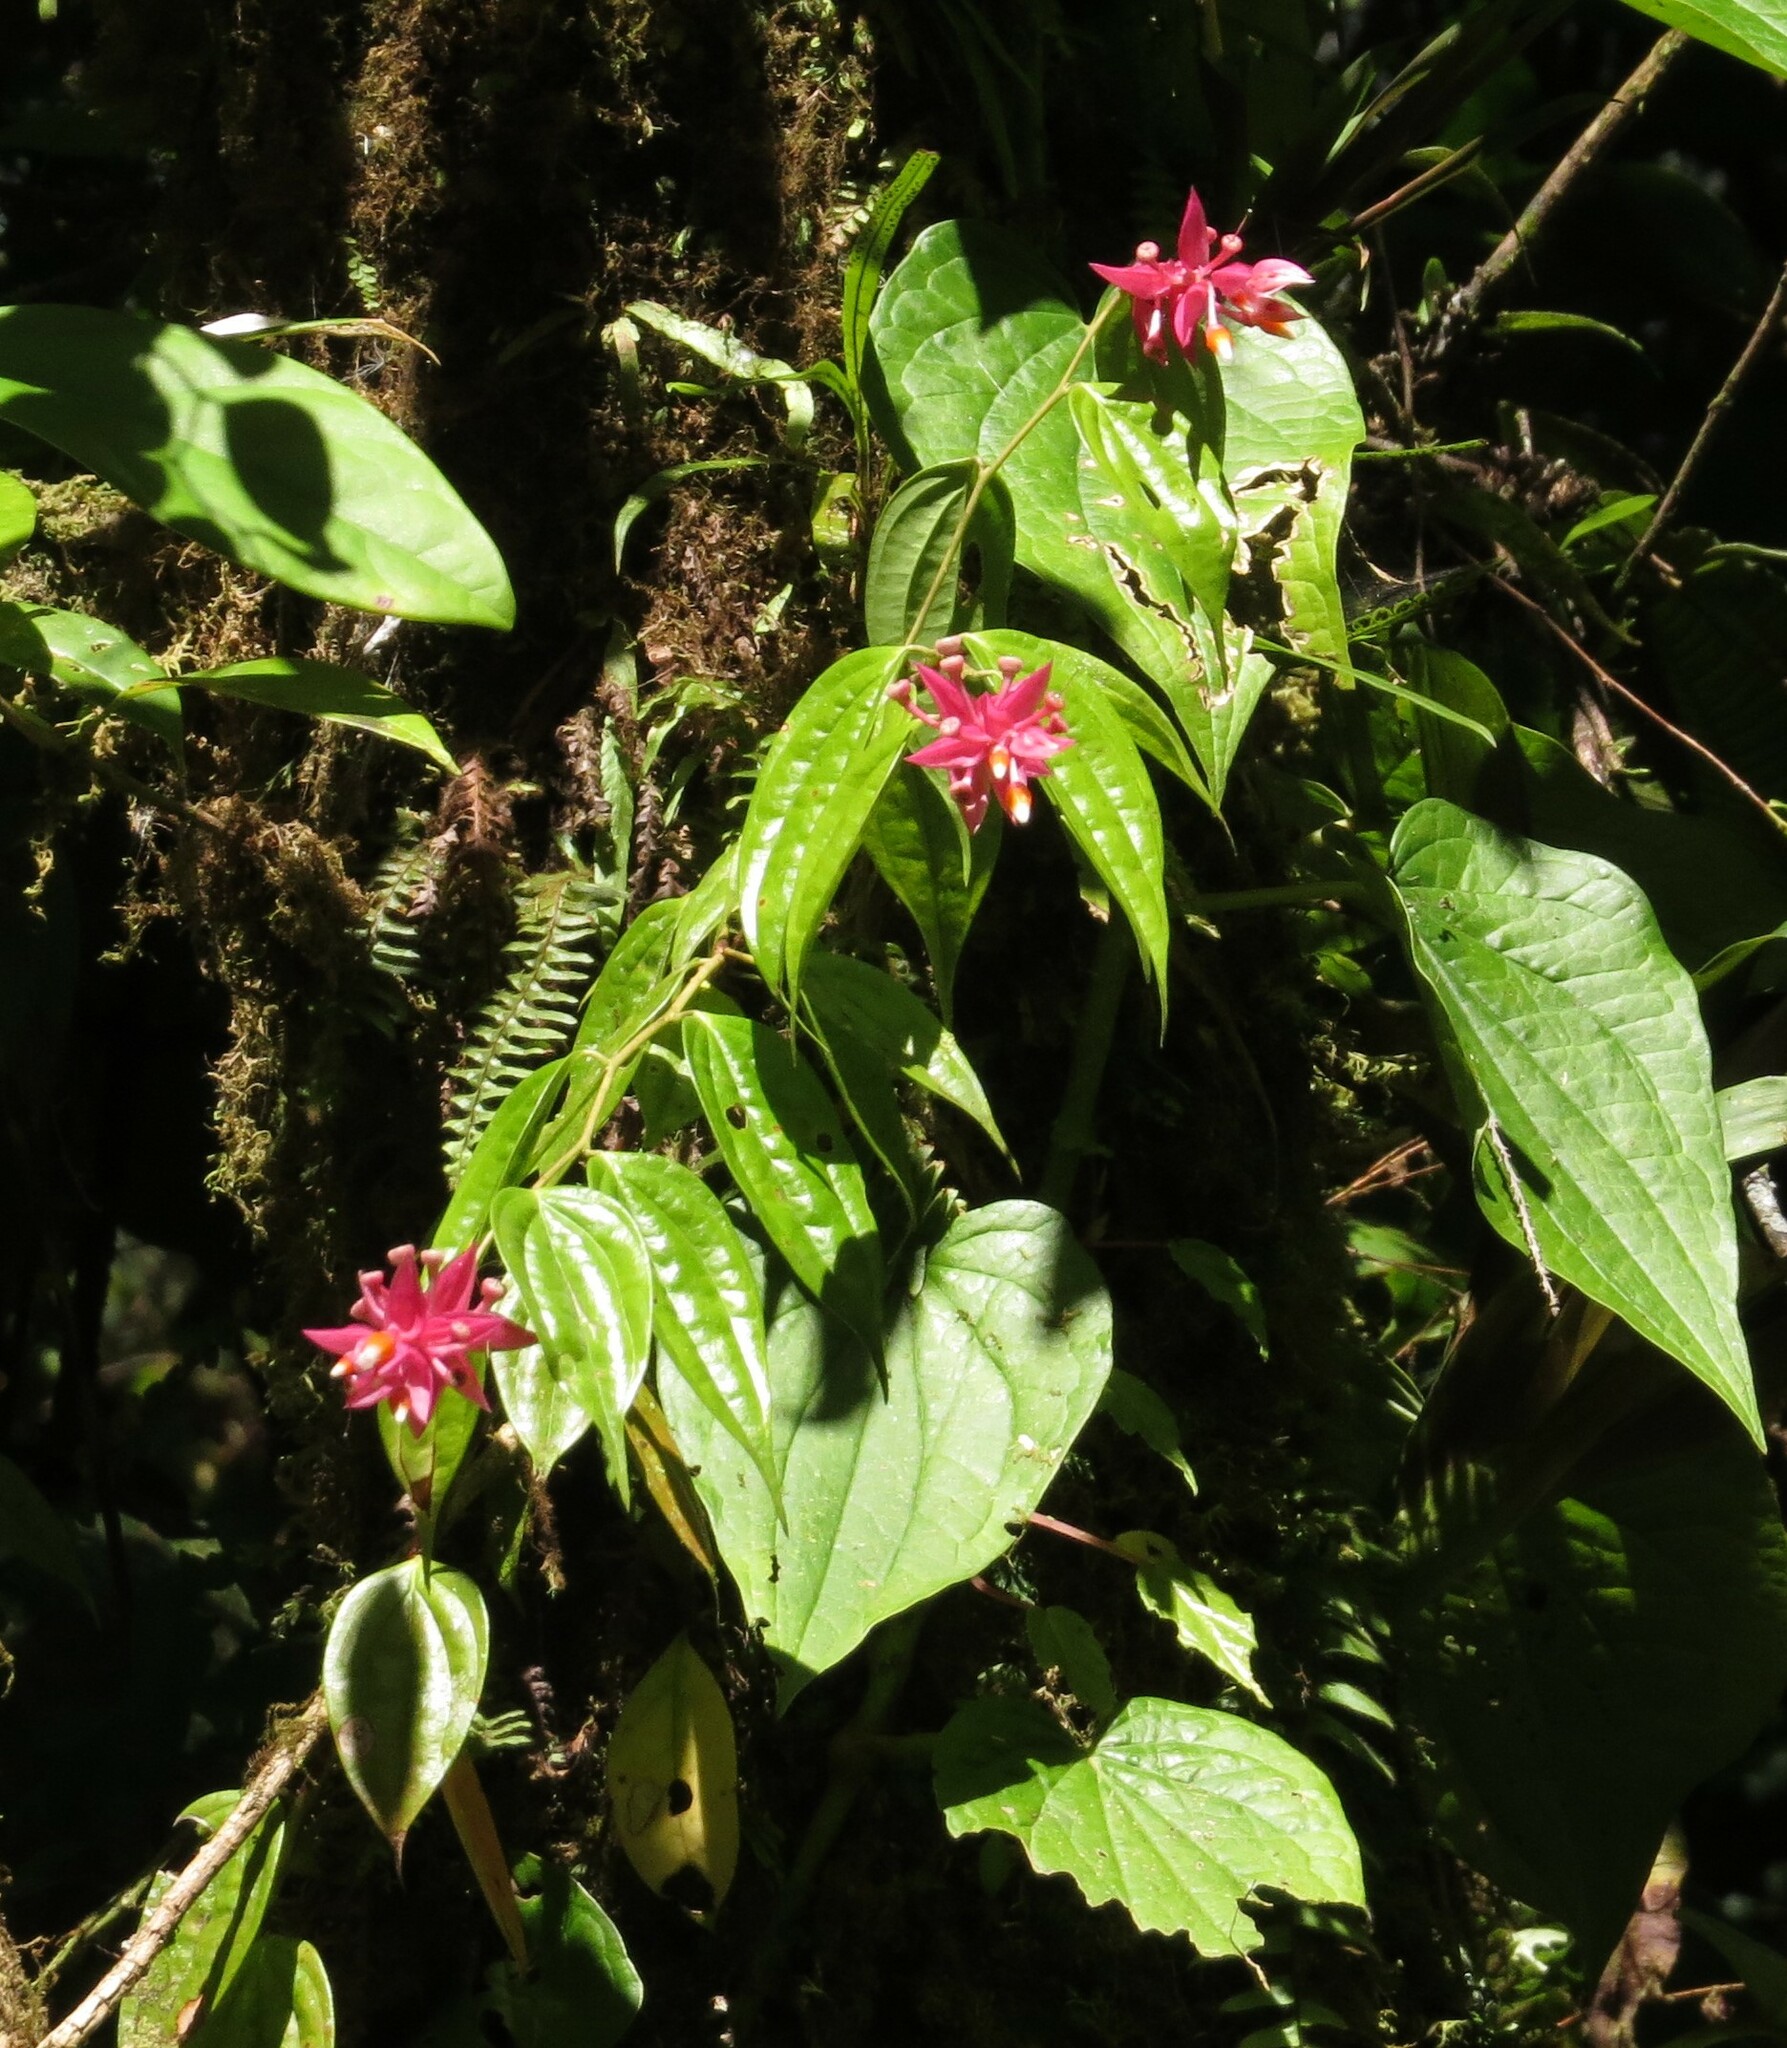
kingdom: Plantae
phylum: Tracheophyta
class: Magnoliopsida
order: Ericales
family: Ericaceae
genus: Cavendishia
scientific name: Cavendishia quereme
